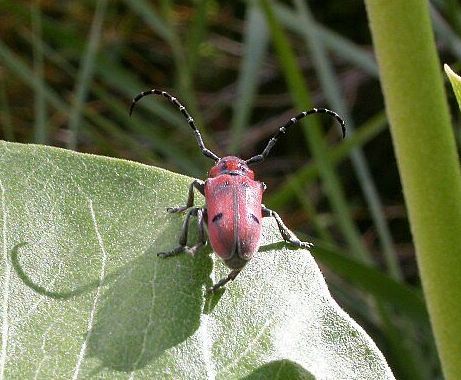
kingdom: Animalia
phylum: Arthropoda
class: Insecta
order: Coleoptera
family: Cerambycidae
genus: Tetraopes
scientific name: Tetraopes femoratus
